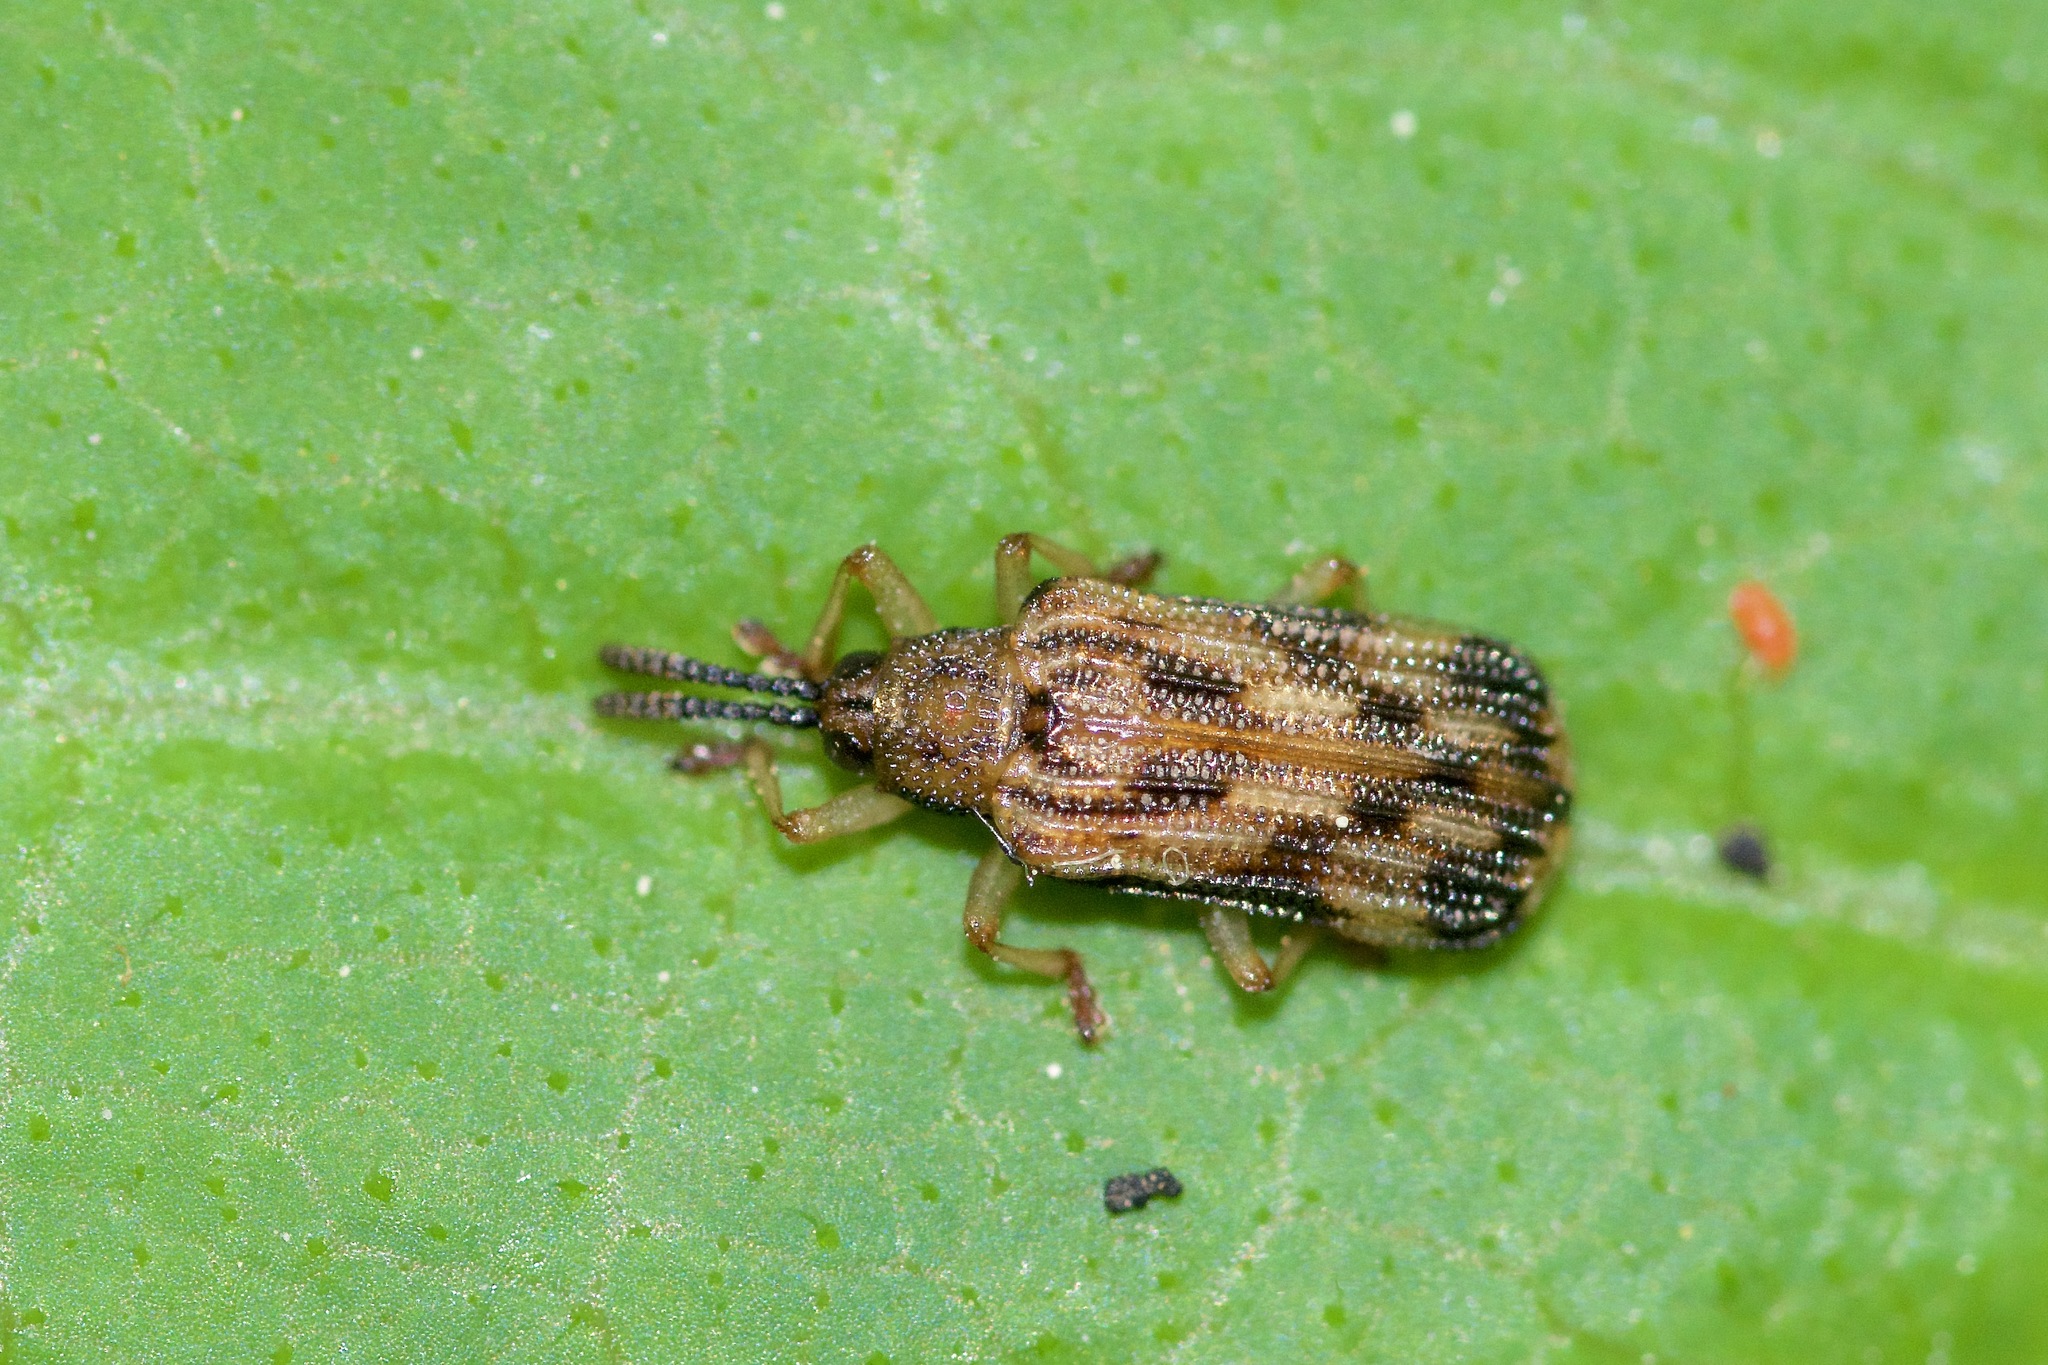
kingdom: Animalia
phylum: Arthropoda
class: Insecta
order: Coleoptera
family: Chrysomelidae
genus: Sumitrosis
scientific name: Sumitrosis inaequalis
